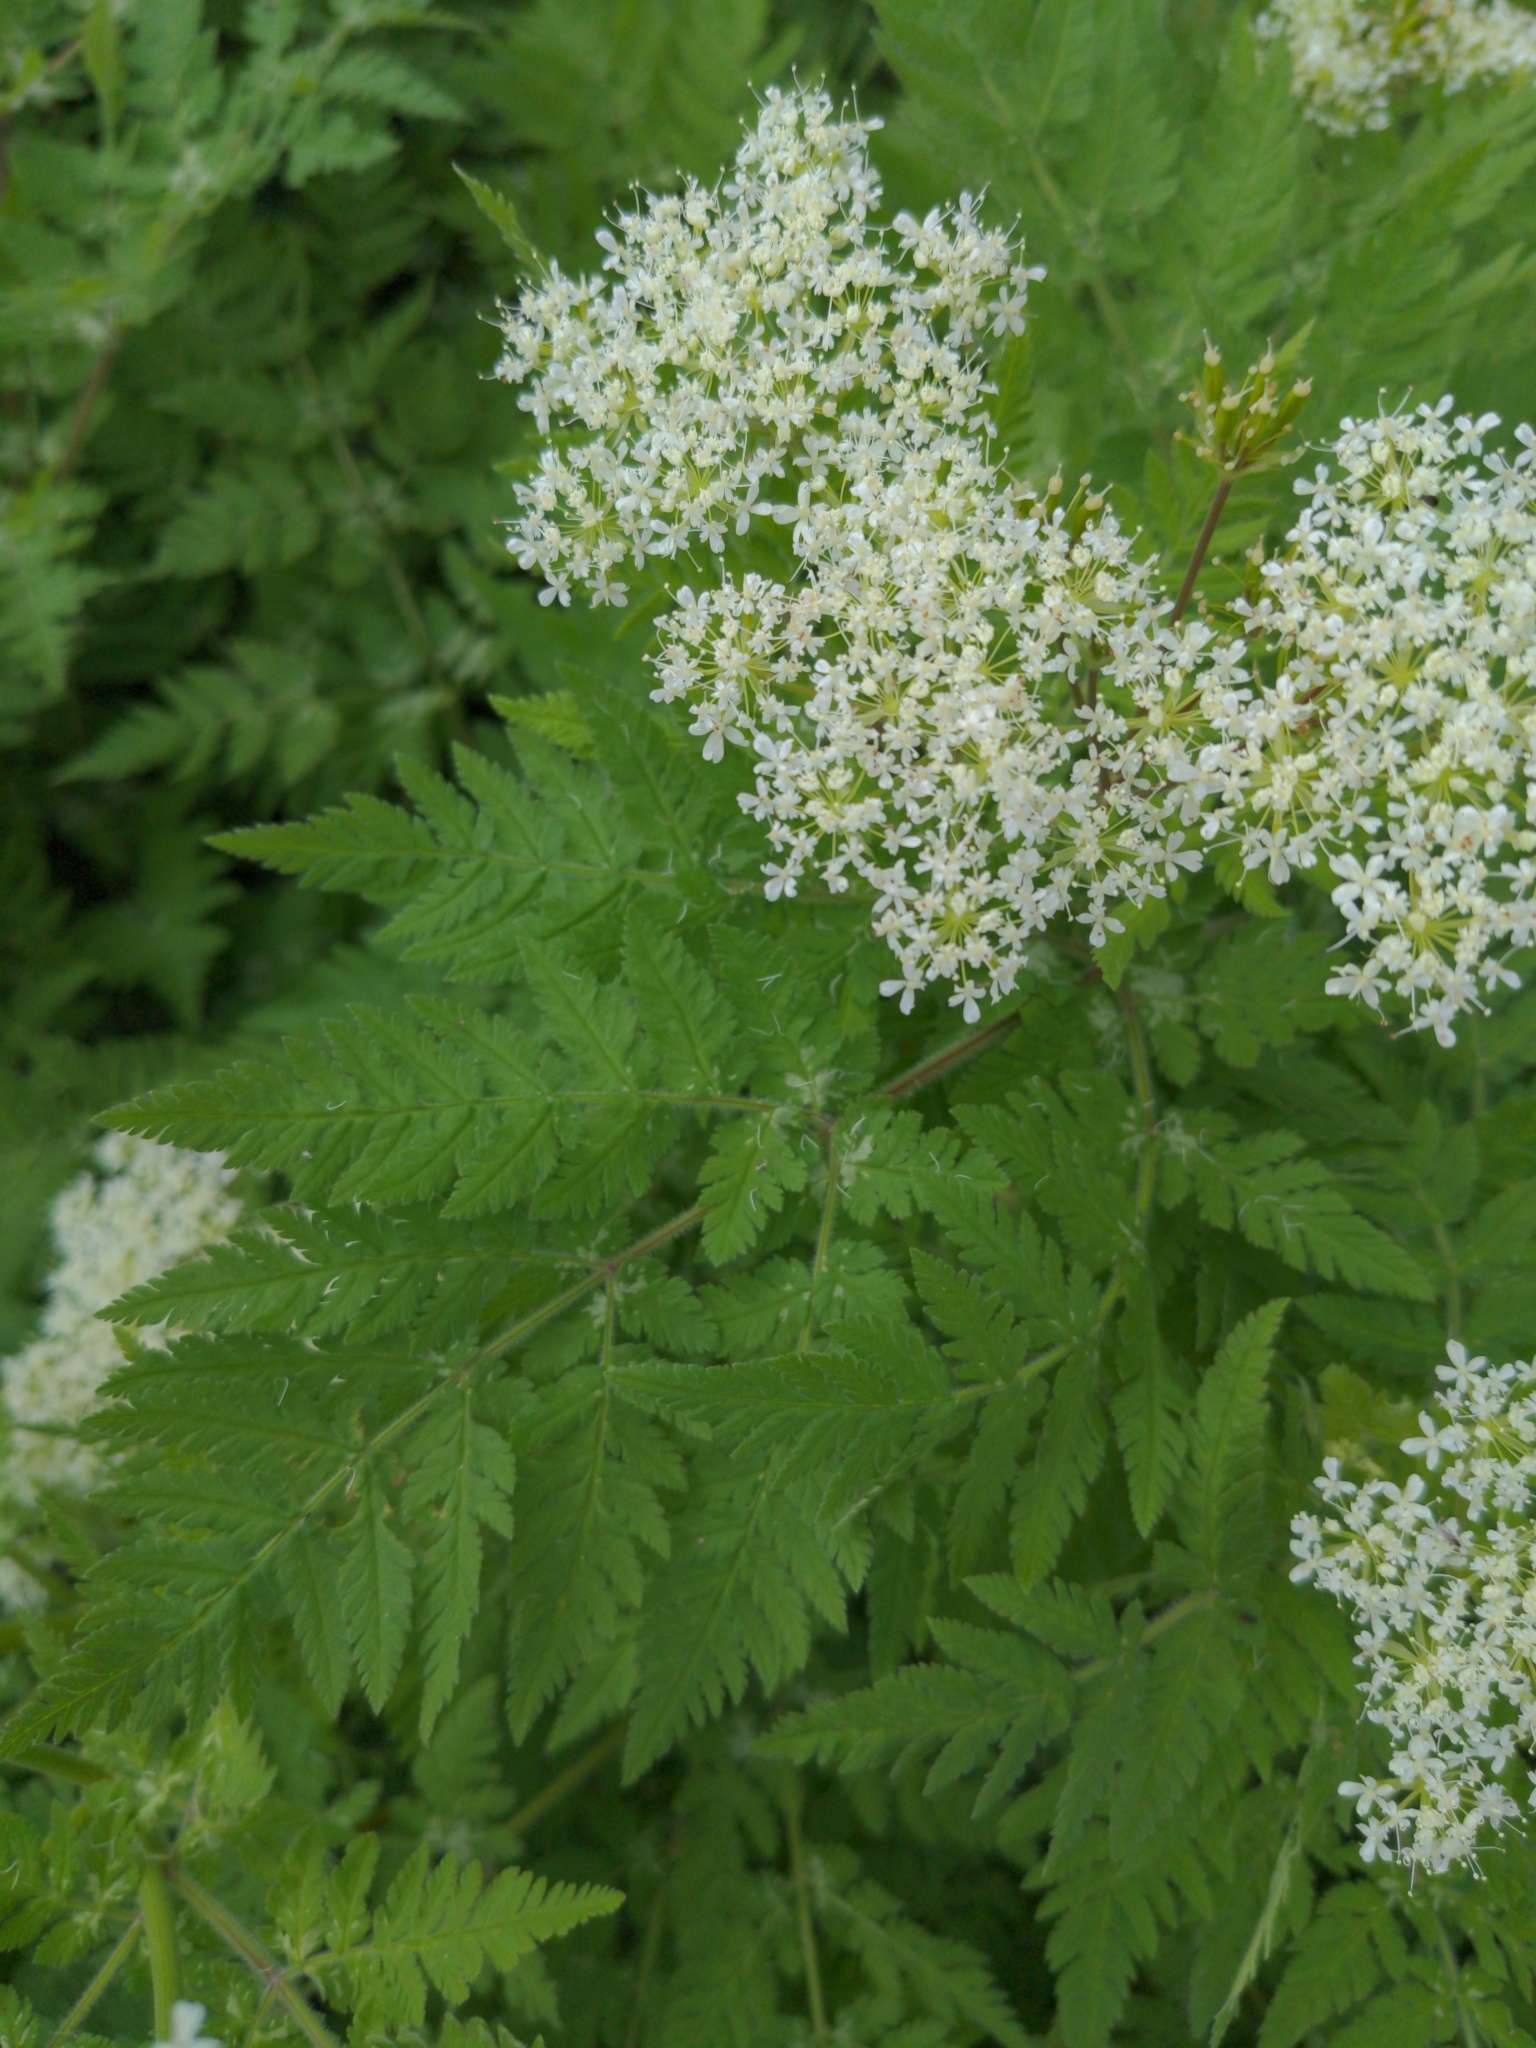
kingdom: Plantae
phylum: Tracheophyta
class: Magnoliopsida
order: Apiales
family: Apiaceae
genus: Myrrhis
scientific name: Myrrhis odorata
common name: Sweet cicely
